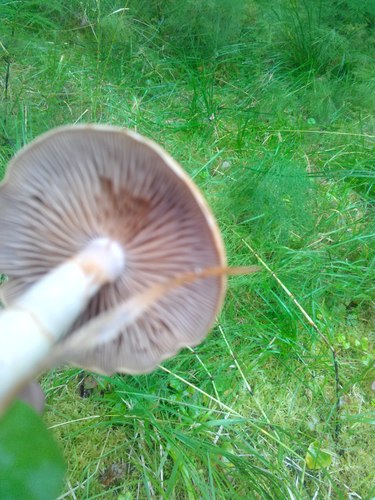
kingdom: Fungi
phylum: Basidiomycota
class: Agaricomycetes
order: Agaricales
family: Cortinariaceae
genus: Cortinarius
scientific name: Cortinarius
